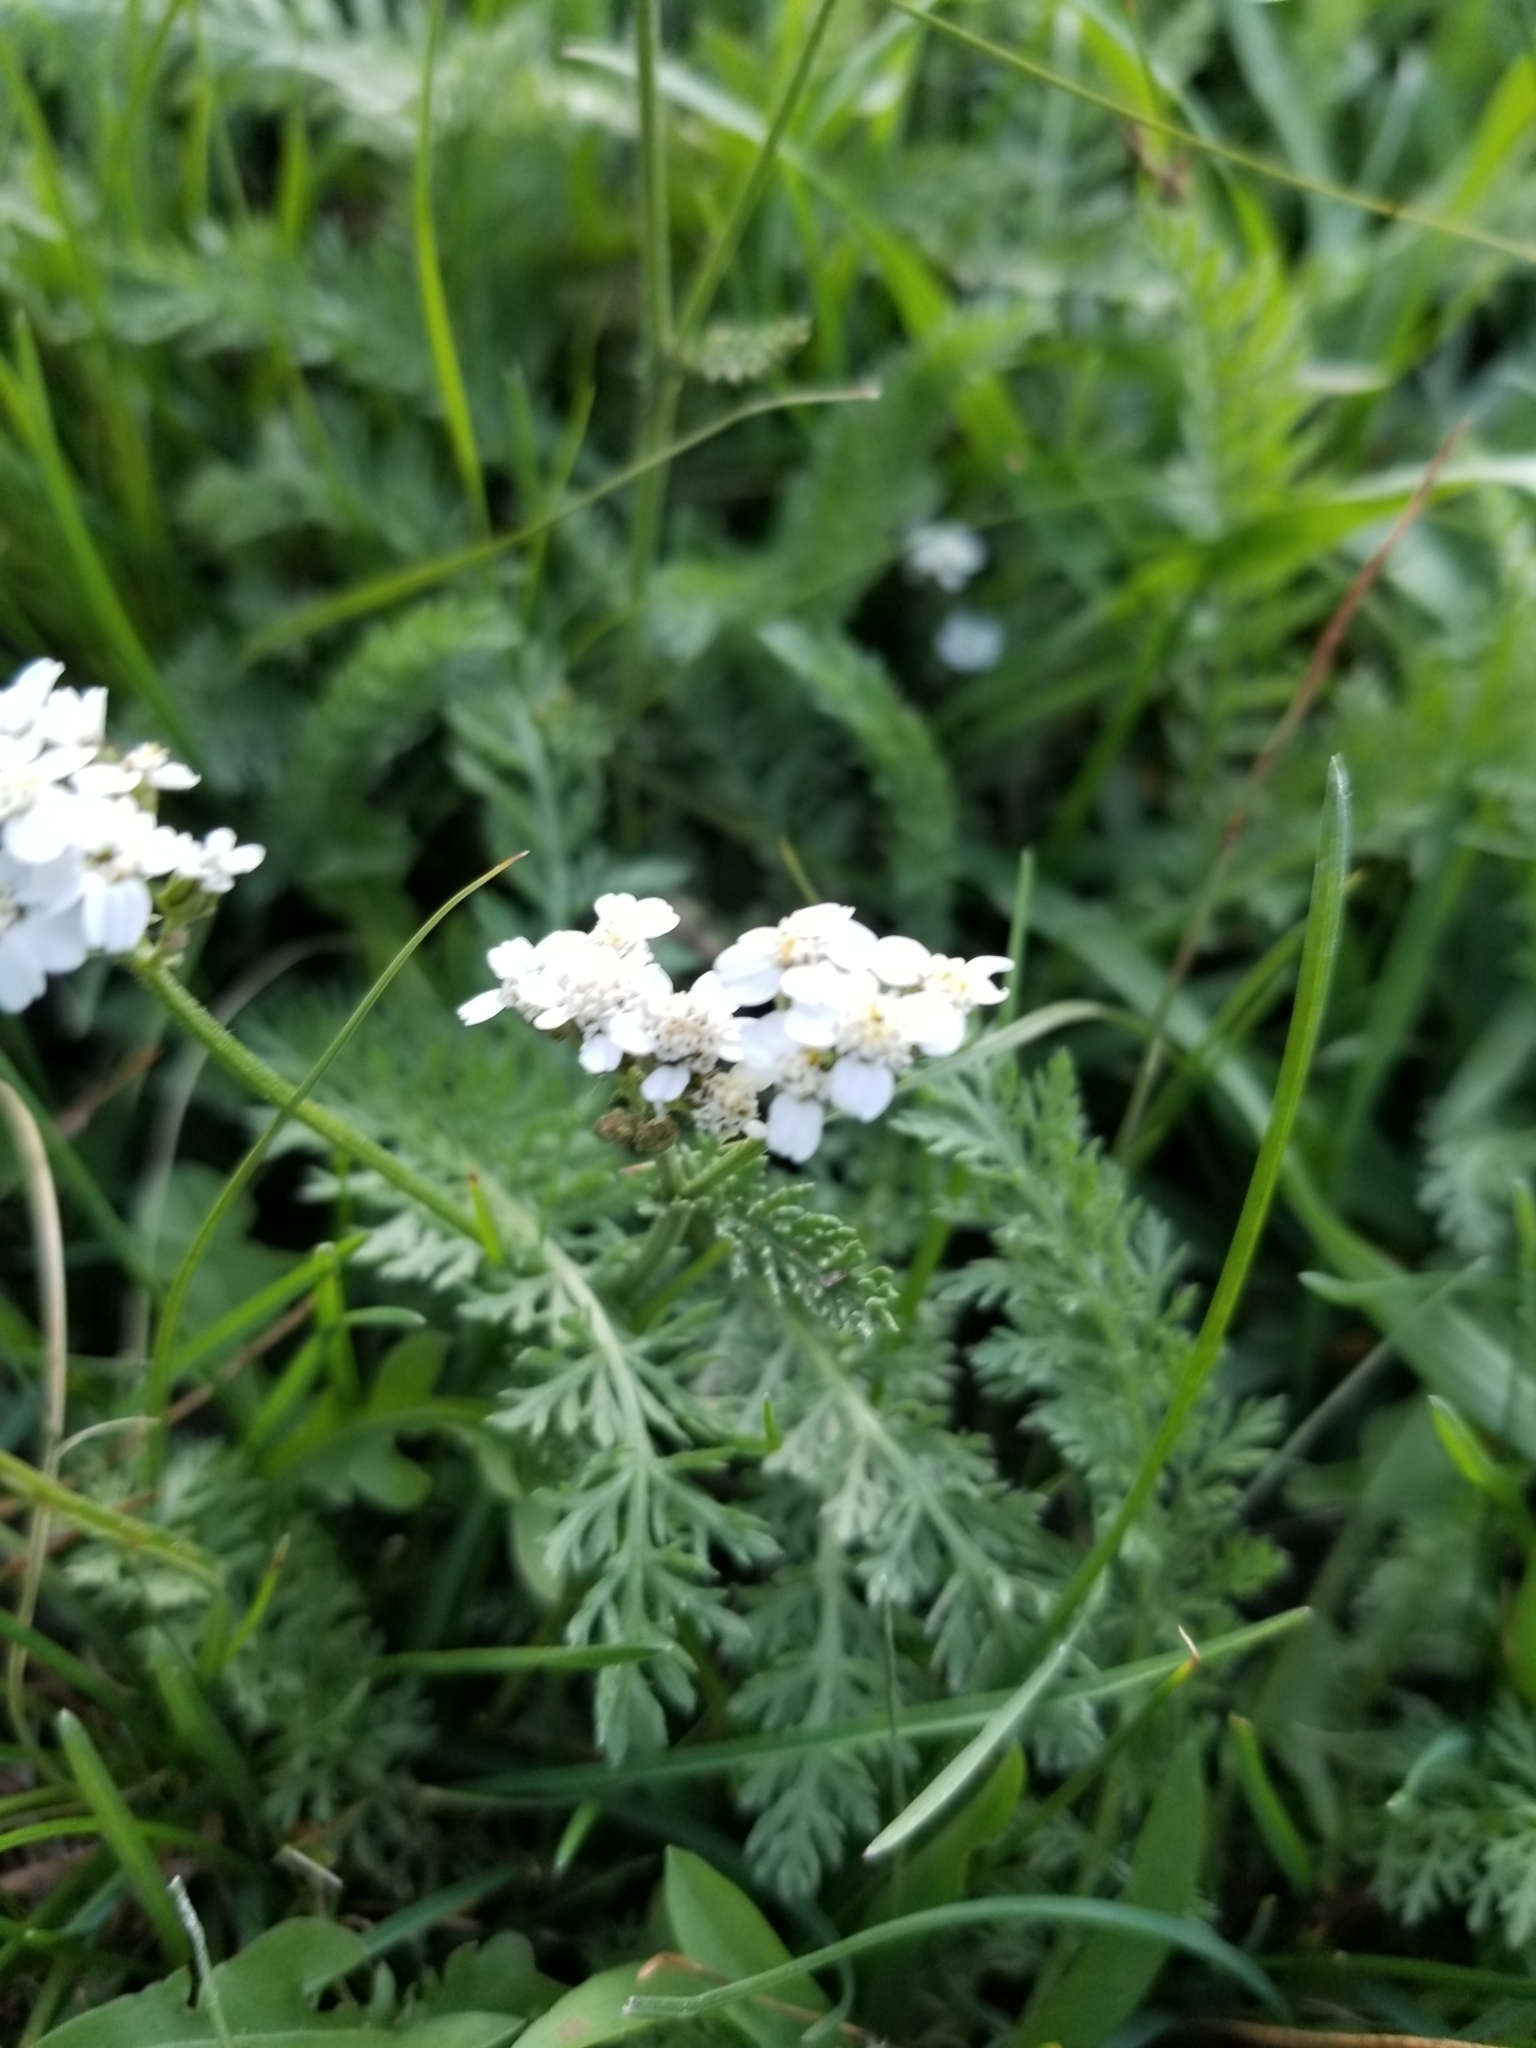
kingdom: Plantae
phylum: Tracheophyta
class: Magnoliopsida
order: Asterales
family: Asteraceae
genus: Achillea
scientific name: Achillea millefolium
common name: Yarrow
